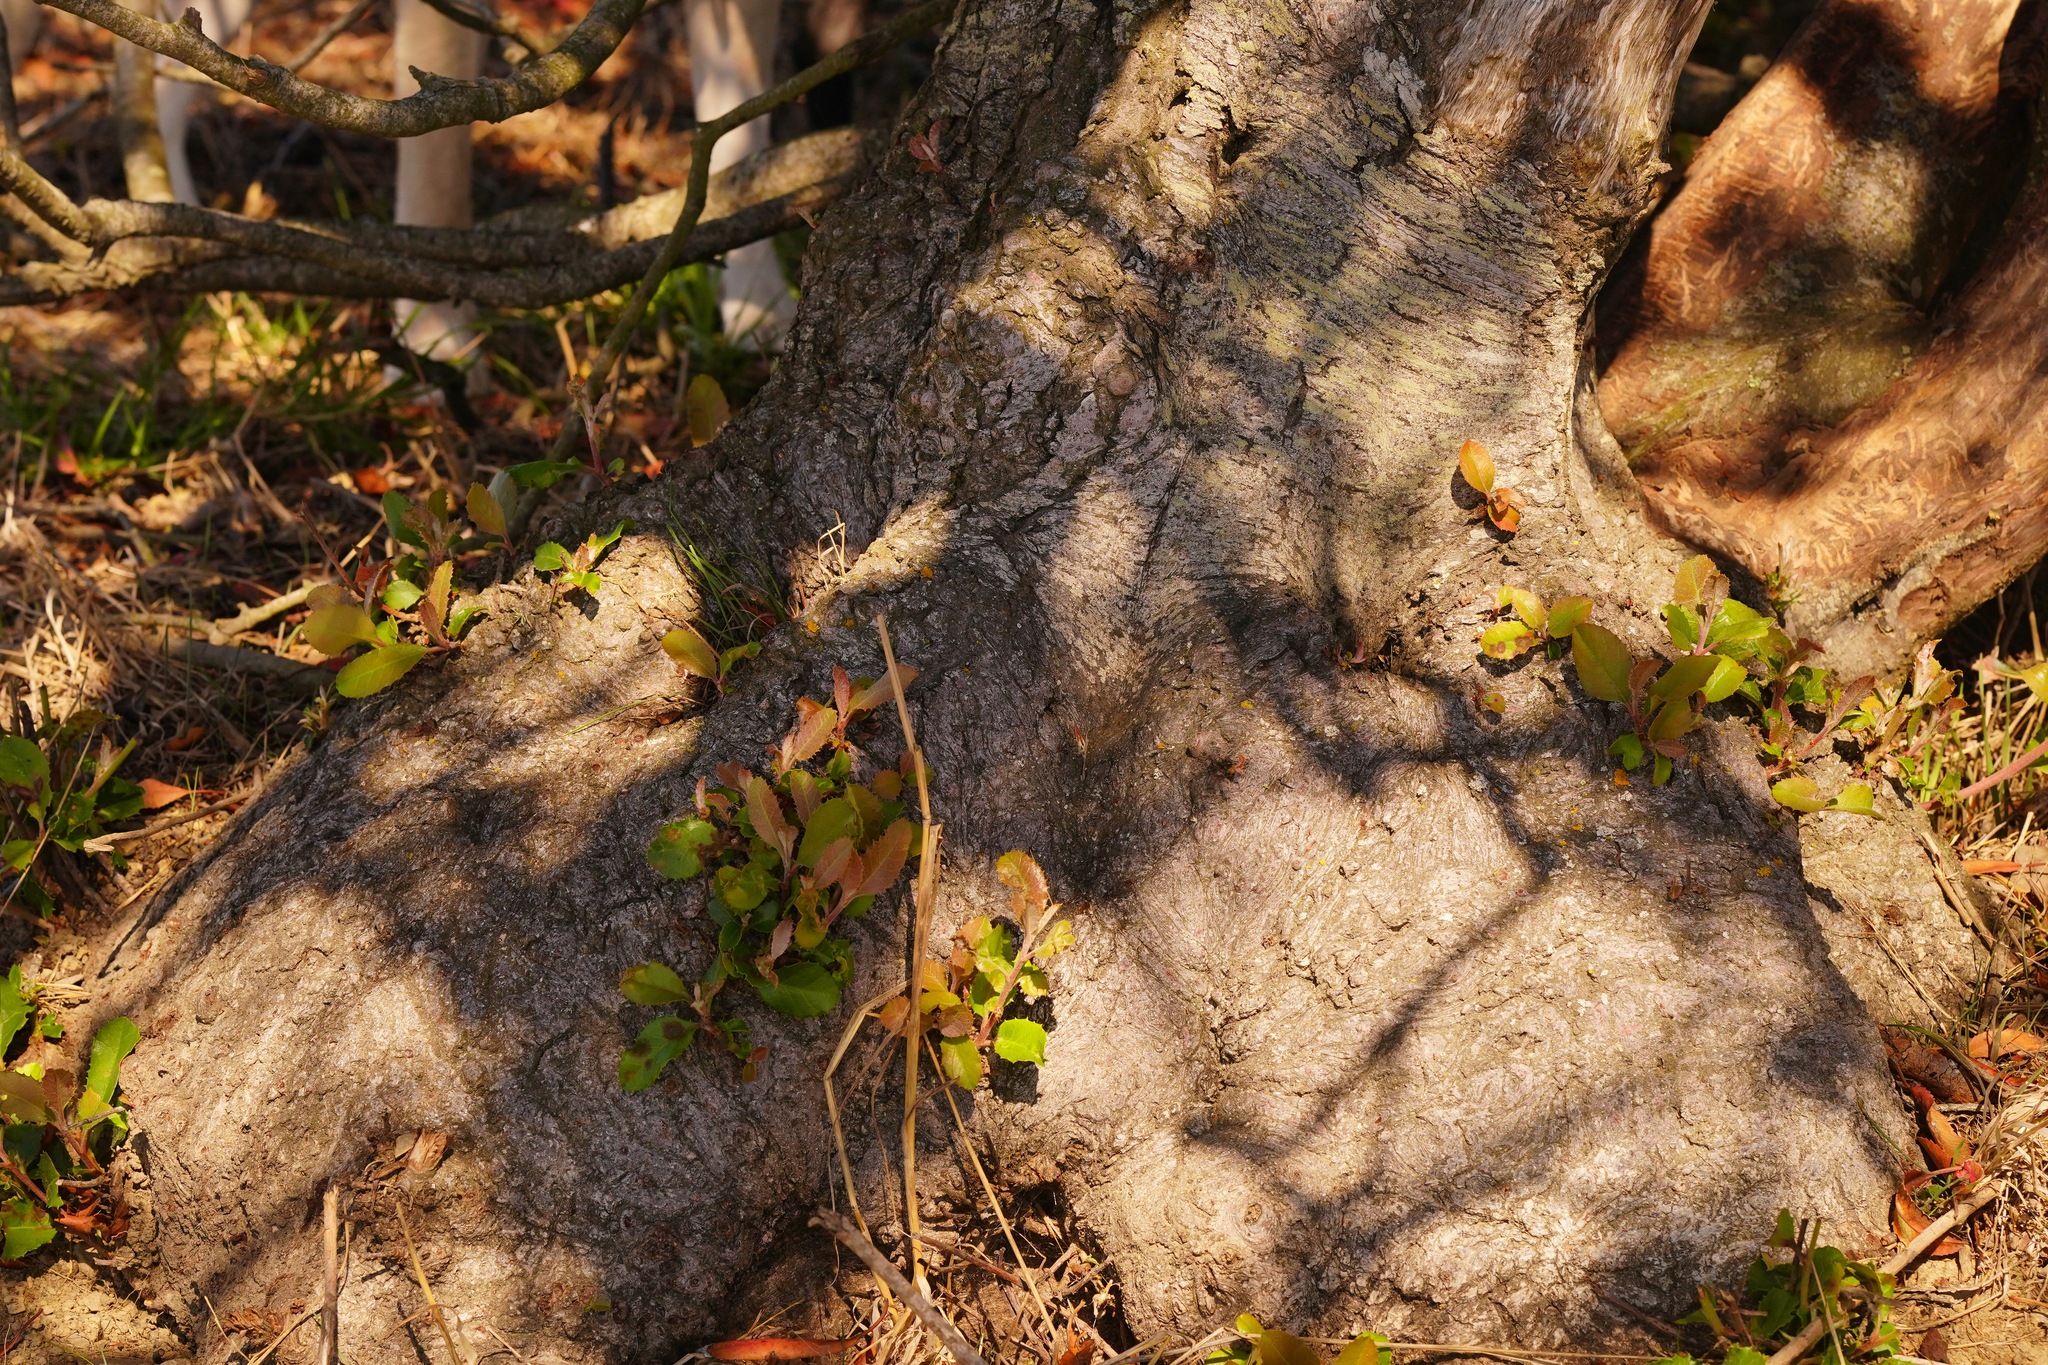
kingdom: Plantae
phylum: Tracheophyta
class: Magnoliopsida
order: Rosales
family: Rosaceae
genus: Heteromeles
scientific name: Heteromeles arbutifolia
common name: California-holly
